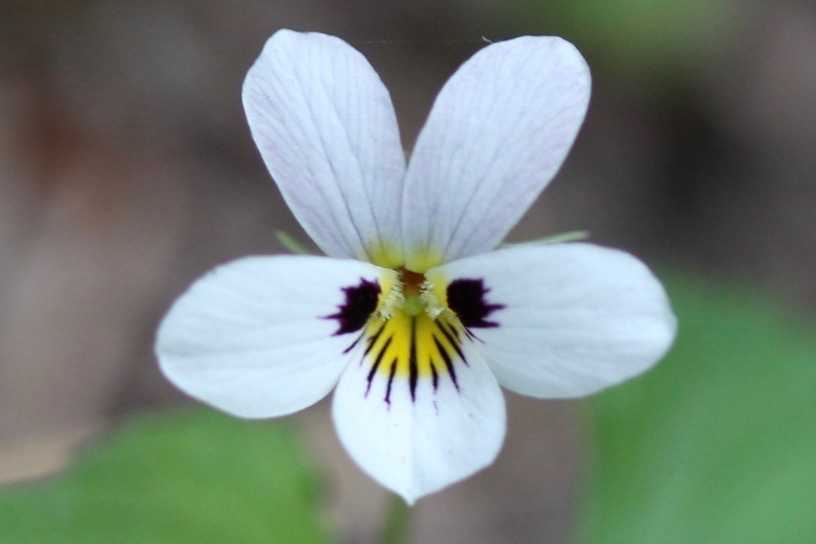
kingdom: Plantae
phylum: Tracheophyta
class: Magnoliopsida
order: Malpighiales
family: Violaceae
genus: Viola
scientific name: Viola ocellata
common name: Western heart's ease
